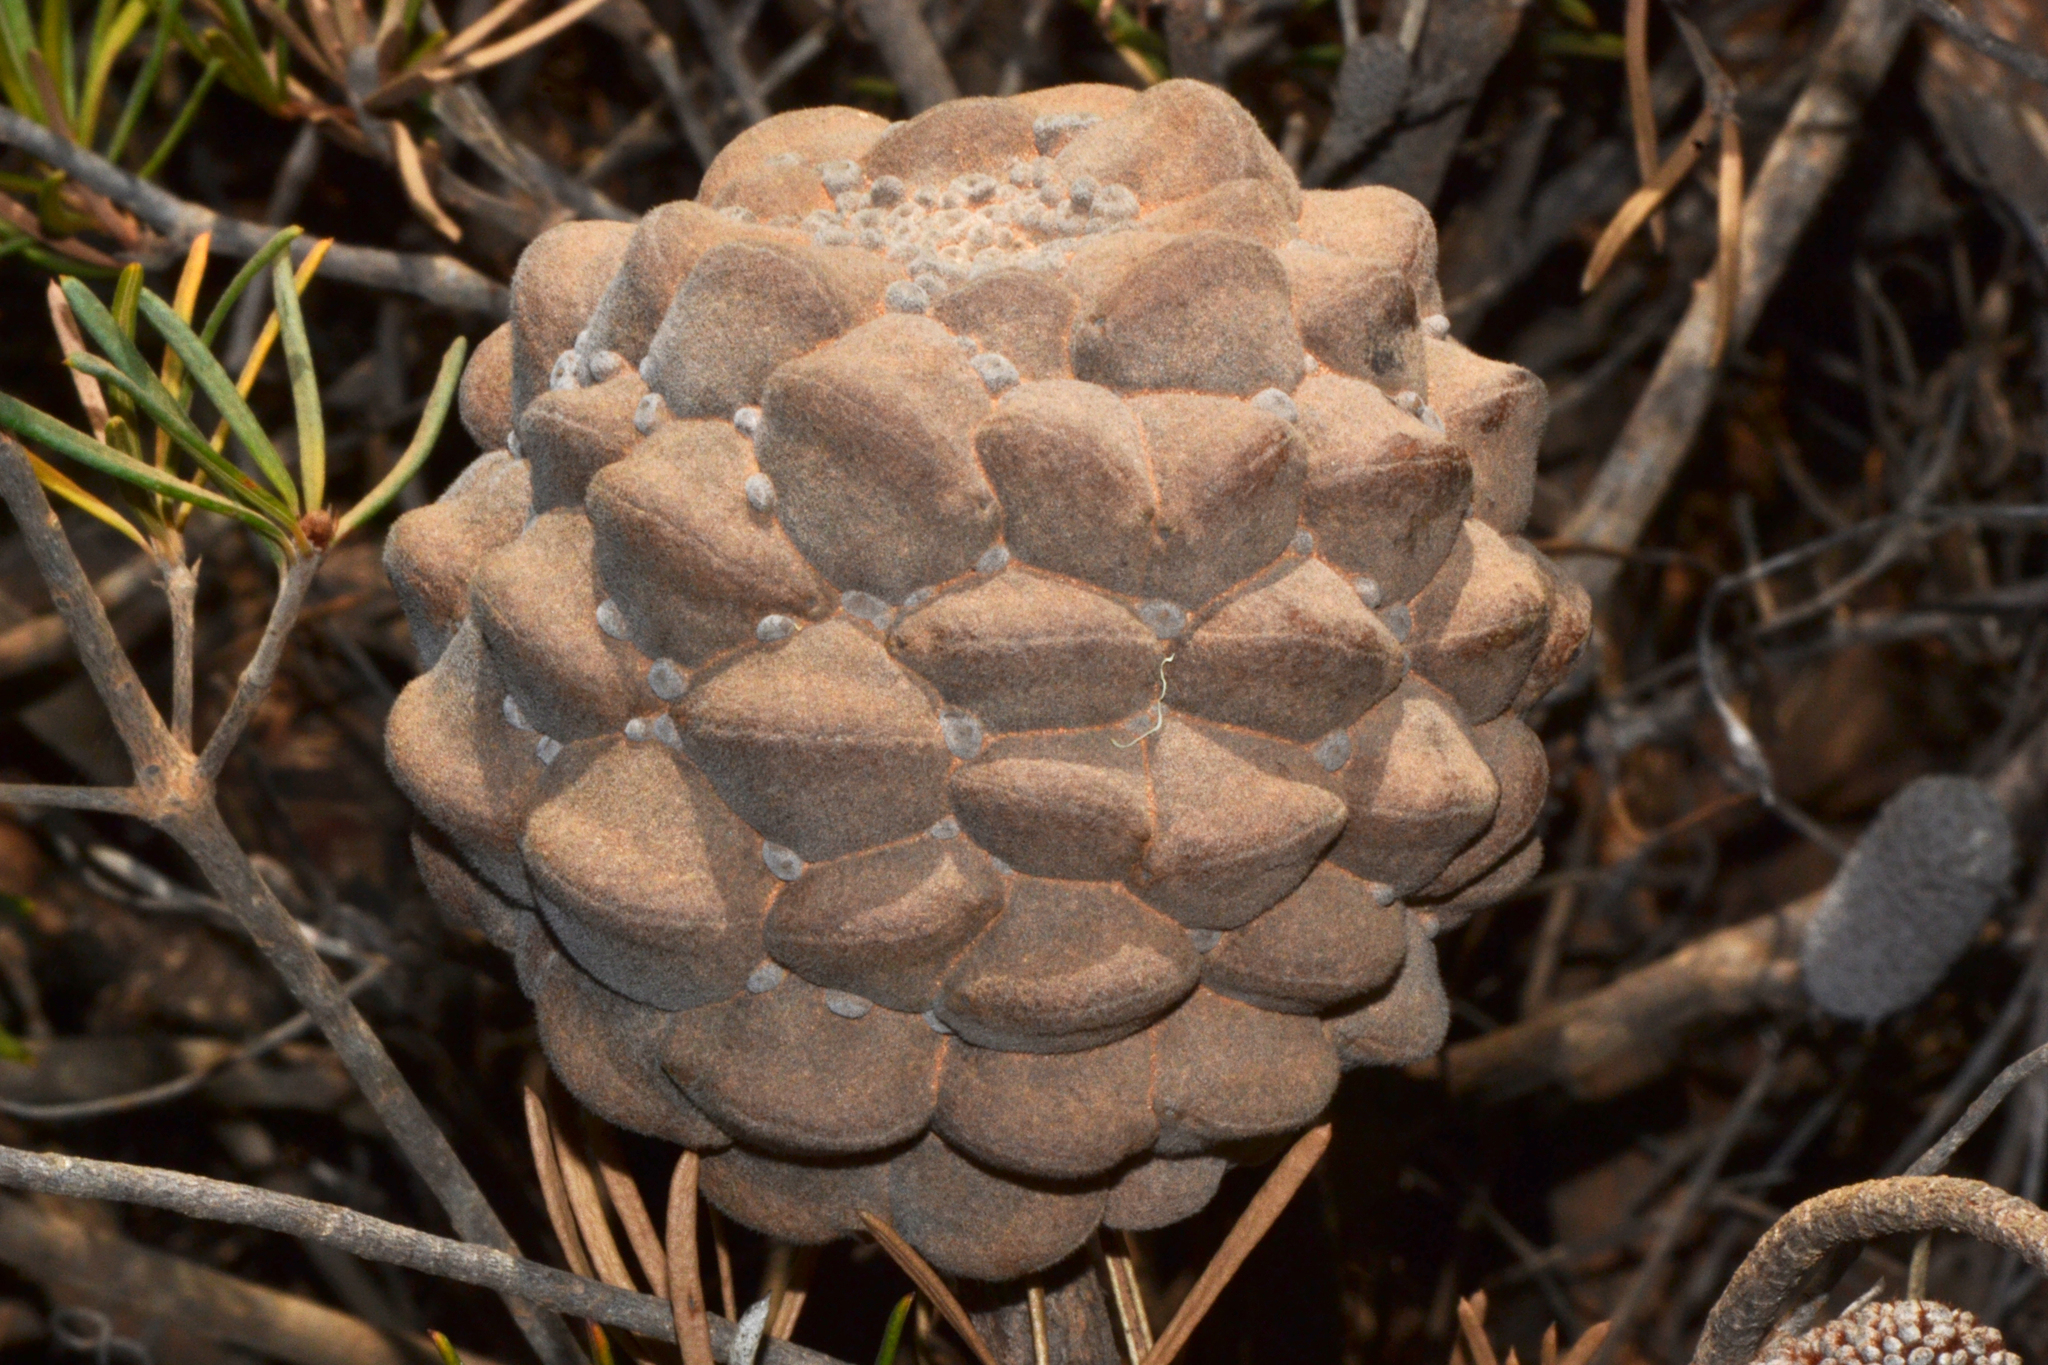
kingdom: Plantae
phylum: Tracheophyta
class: Magnoliopsida
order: Proteales
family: Proteaceae
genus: Banksia
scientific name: Banksia incana
